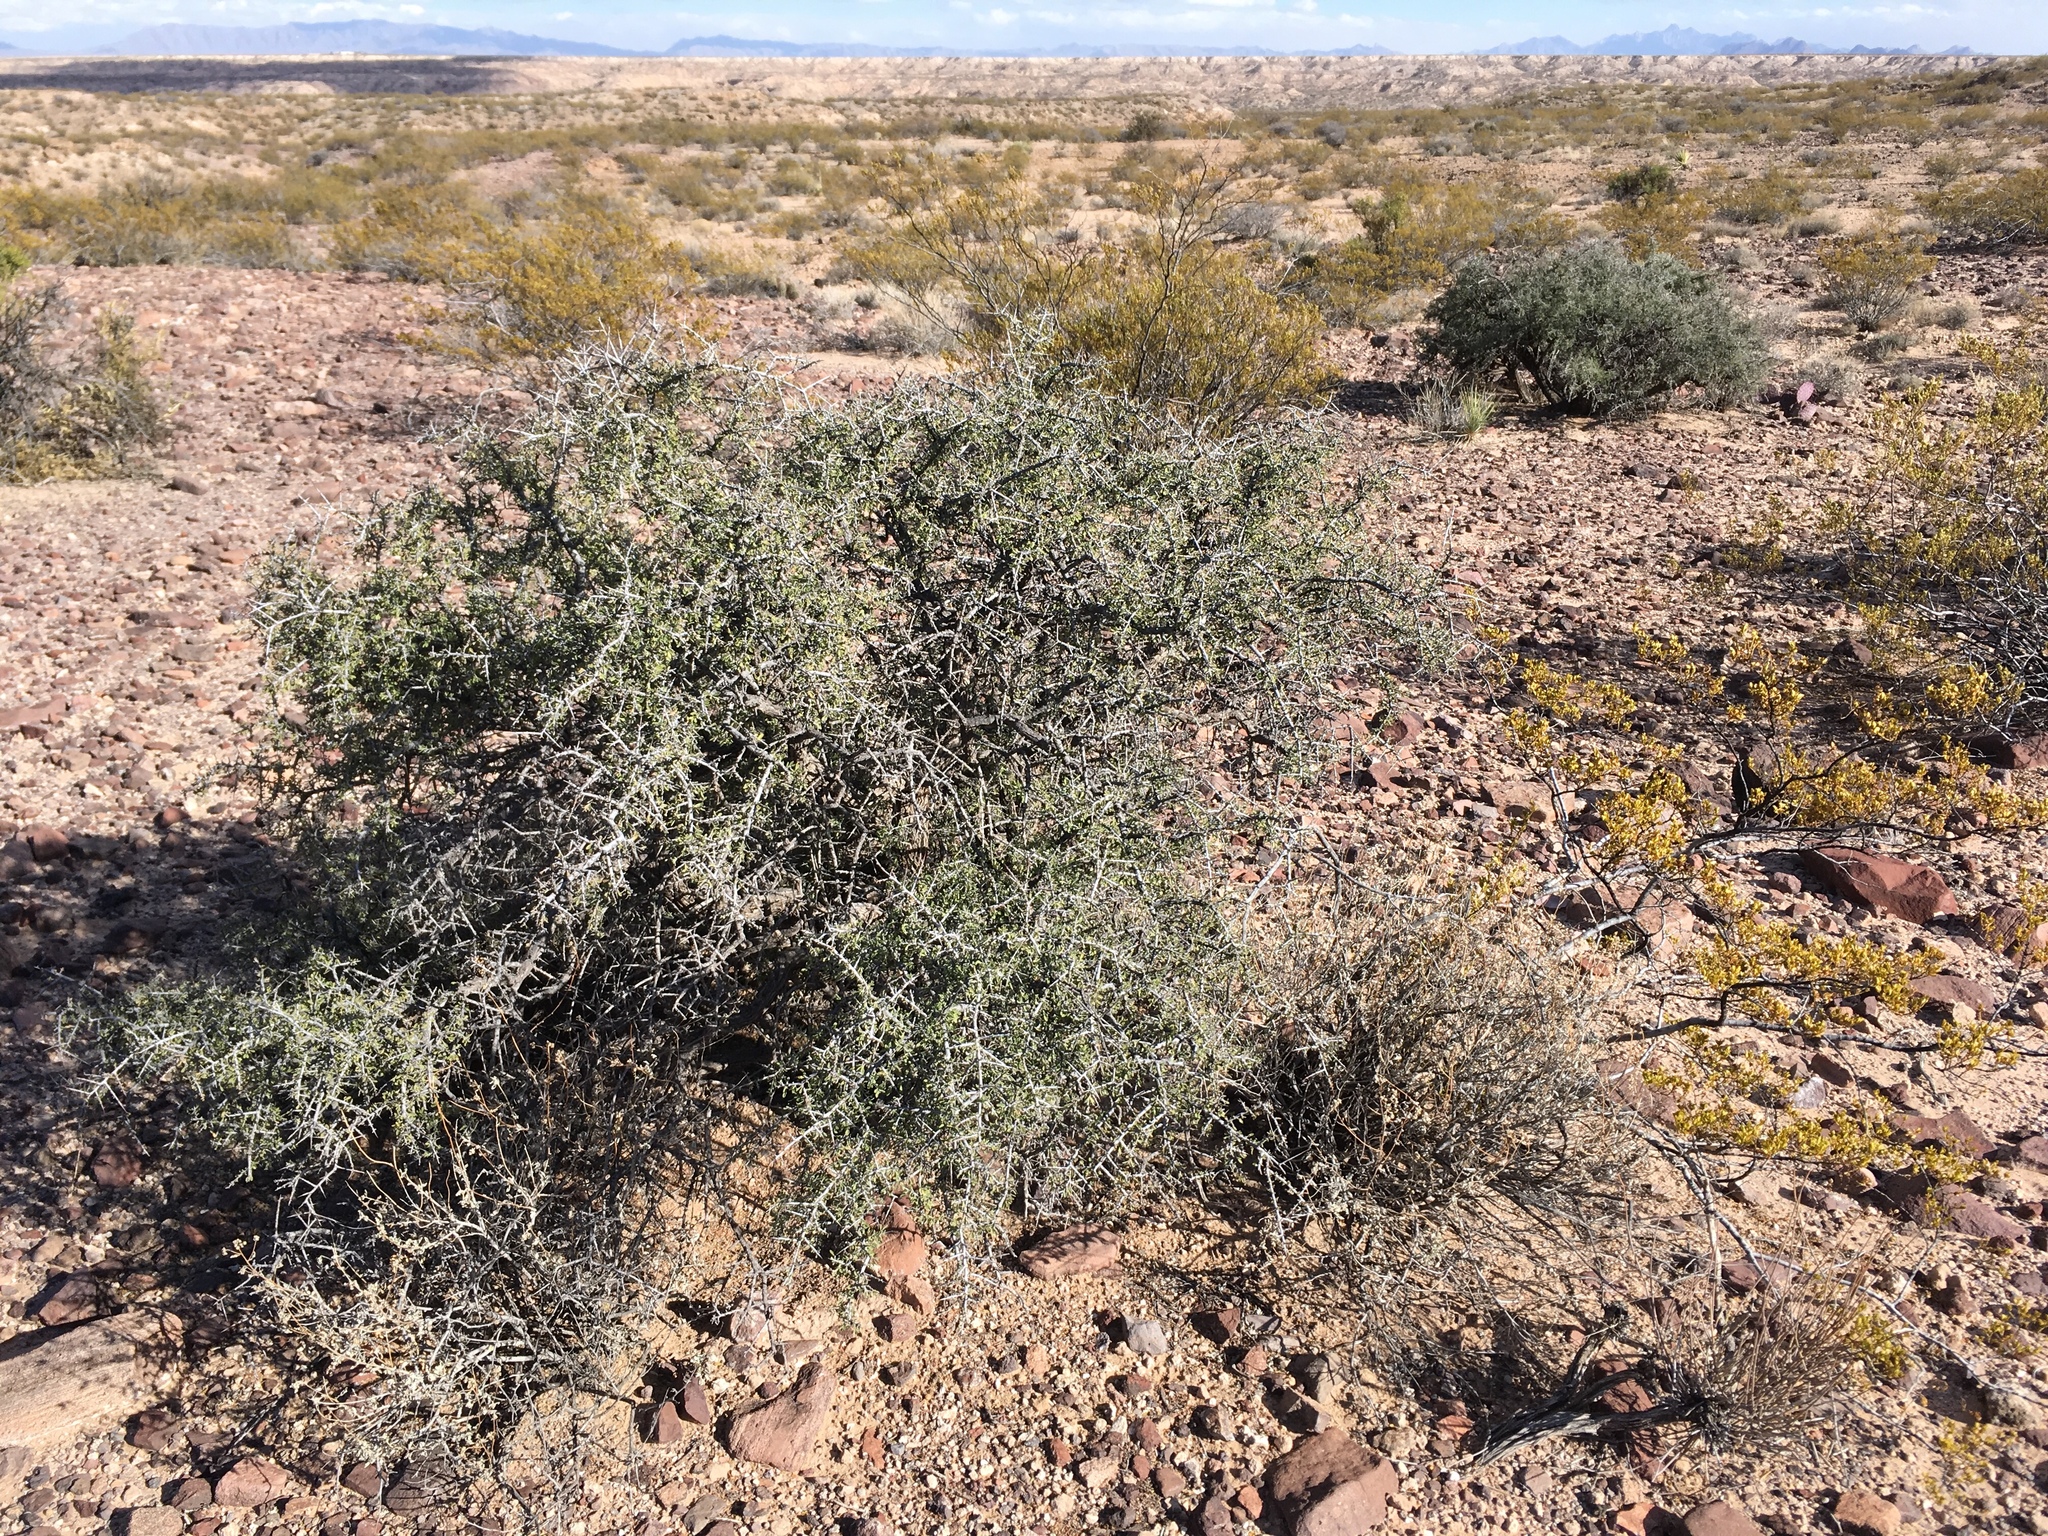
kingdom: Plantae
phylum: Tracheophyta
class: Magnoliopsida
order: Rosales
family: Rhamnaceae
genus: Condalia
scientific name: Condalia warnockii
